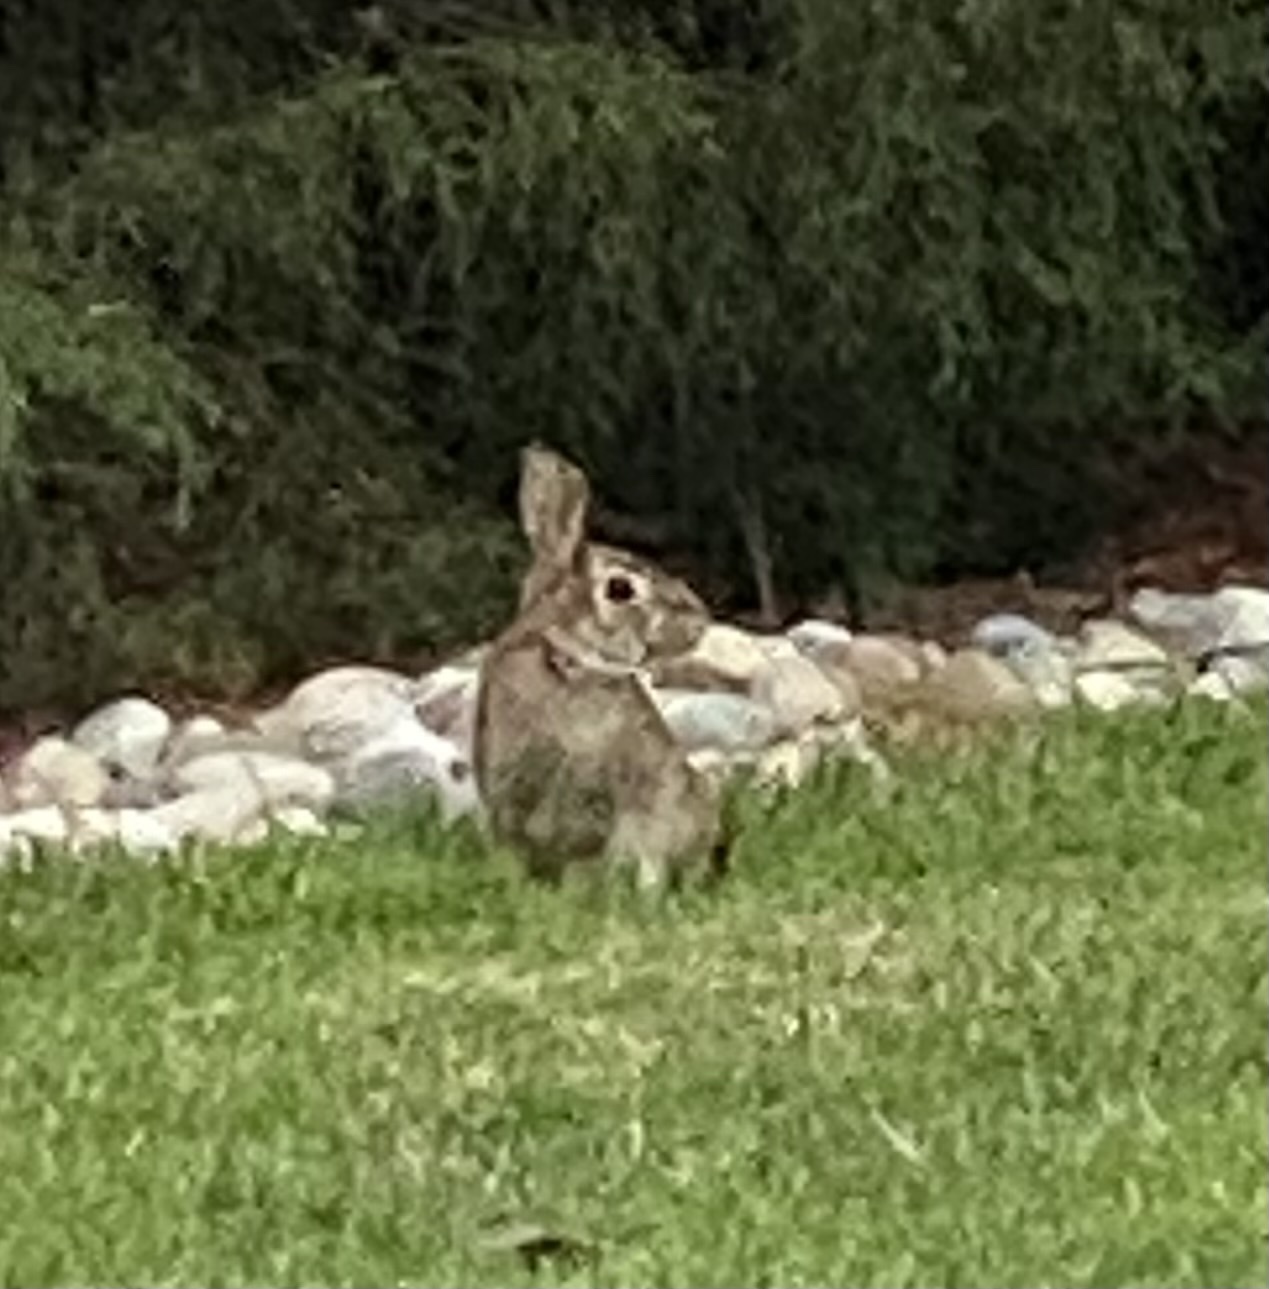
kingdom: Animalia
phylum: Chordata
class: Mammalia
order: Lagomorpha
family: Leporidae
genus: Sylvilagus
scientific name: Sylvilagus floridanus
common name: Eastern cottontail
